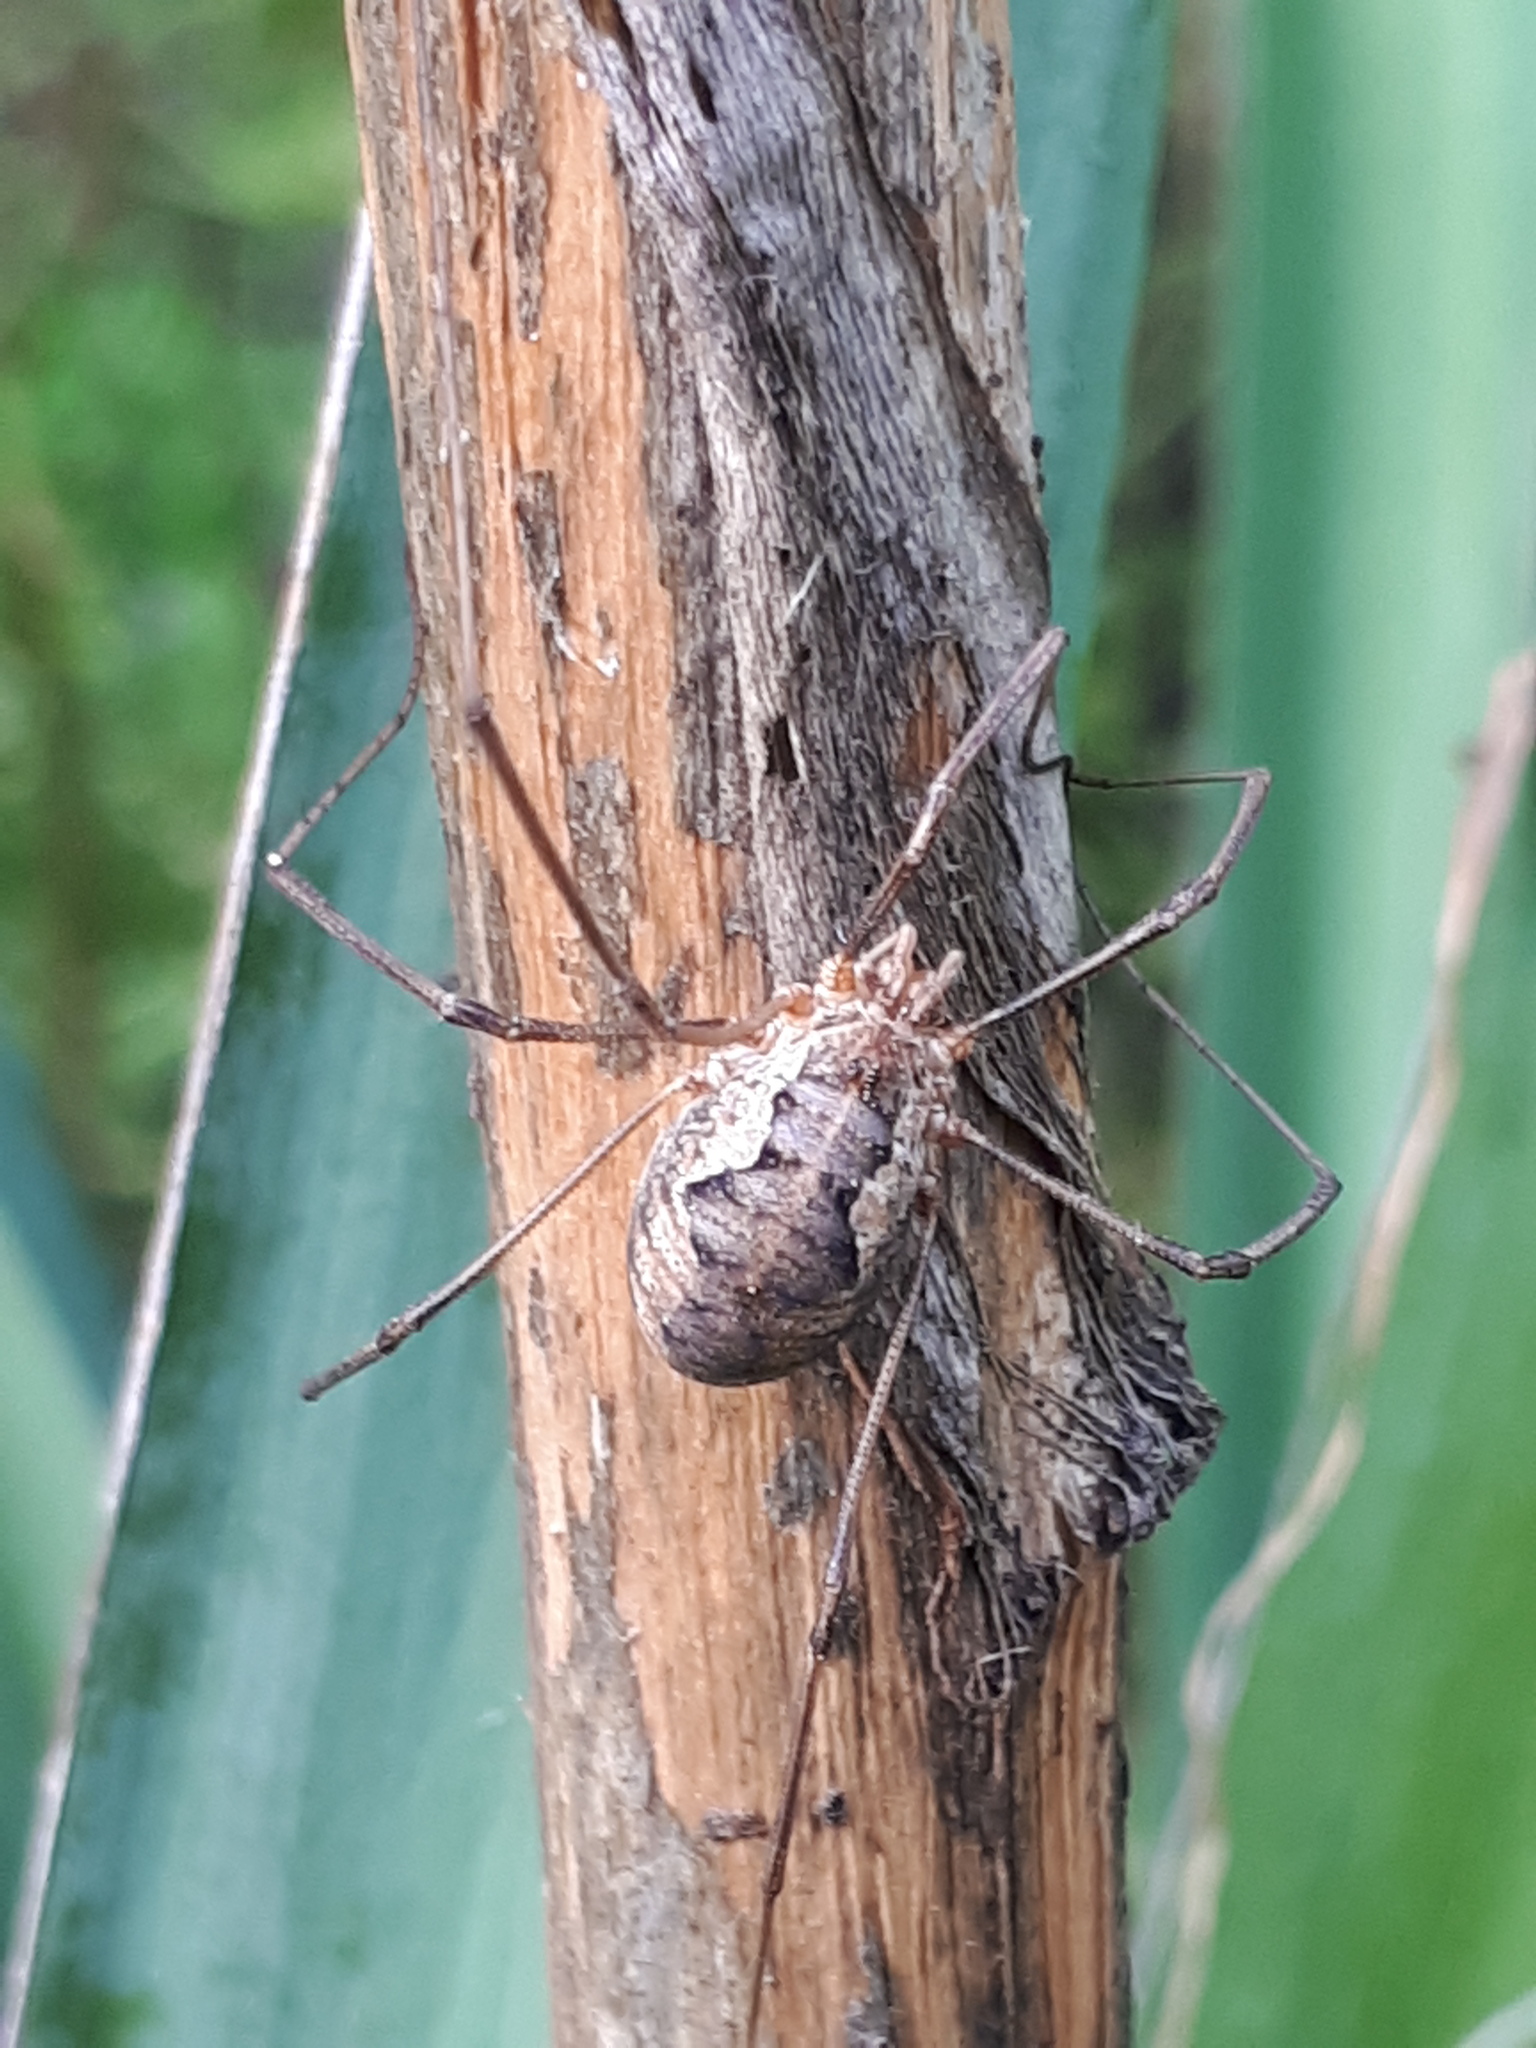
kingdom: Animalia
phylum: Arthropoda
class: Arachnida
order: Opiliones
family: Phalangiidae
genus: Phalangium
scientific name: Phalangium opilio
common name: Daddy longleg
